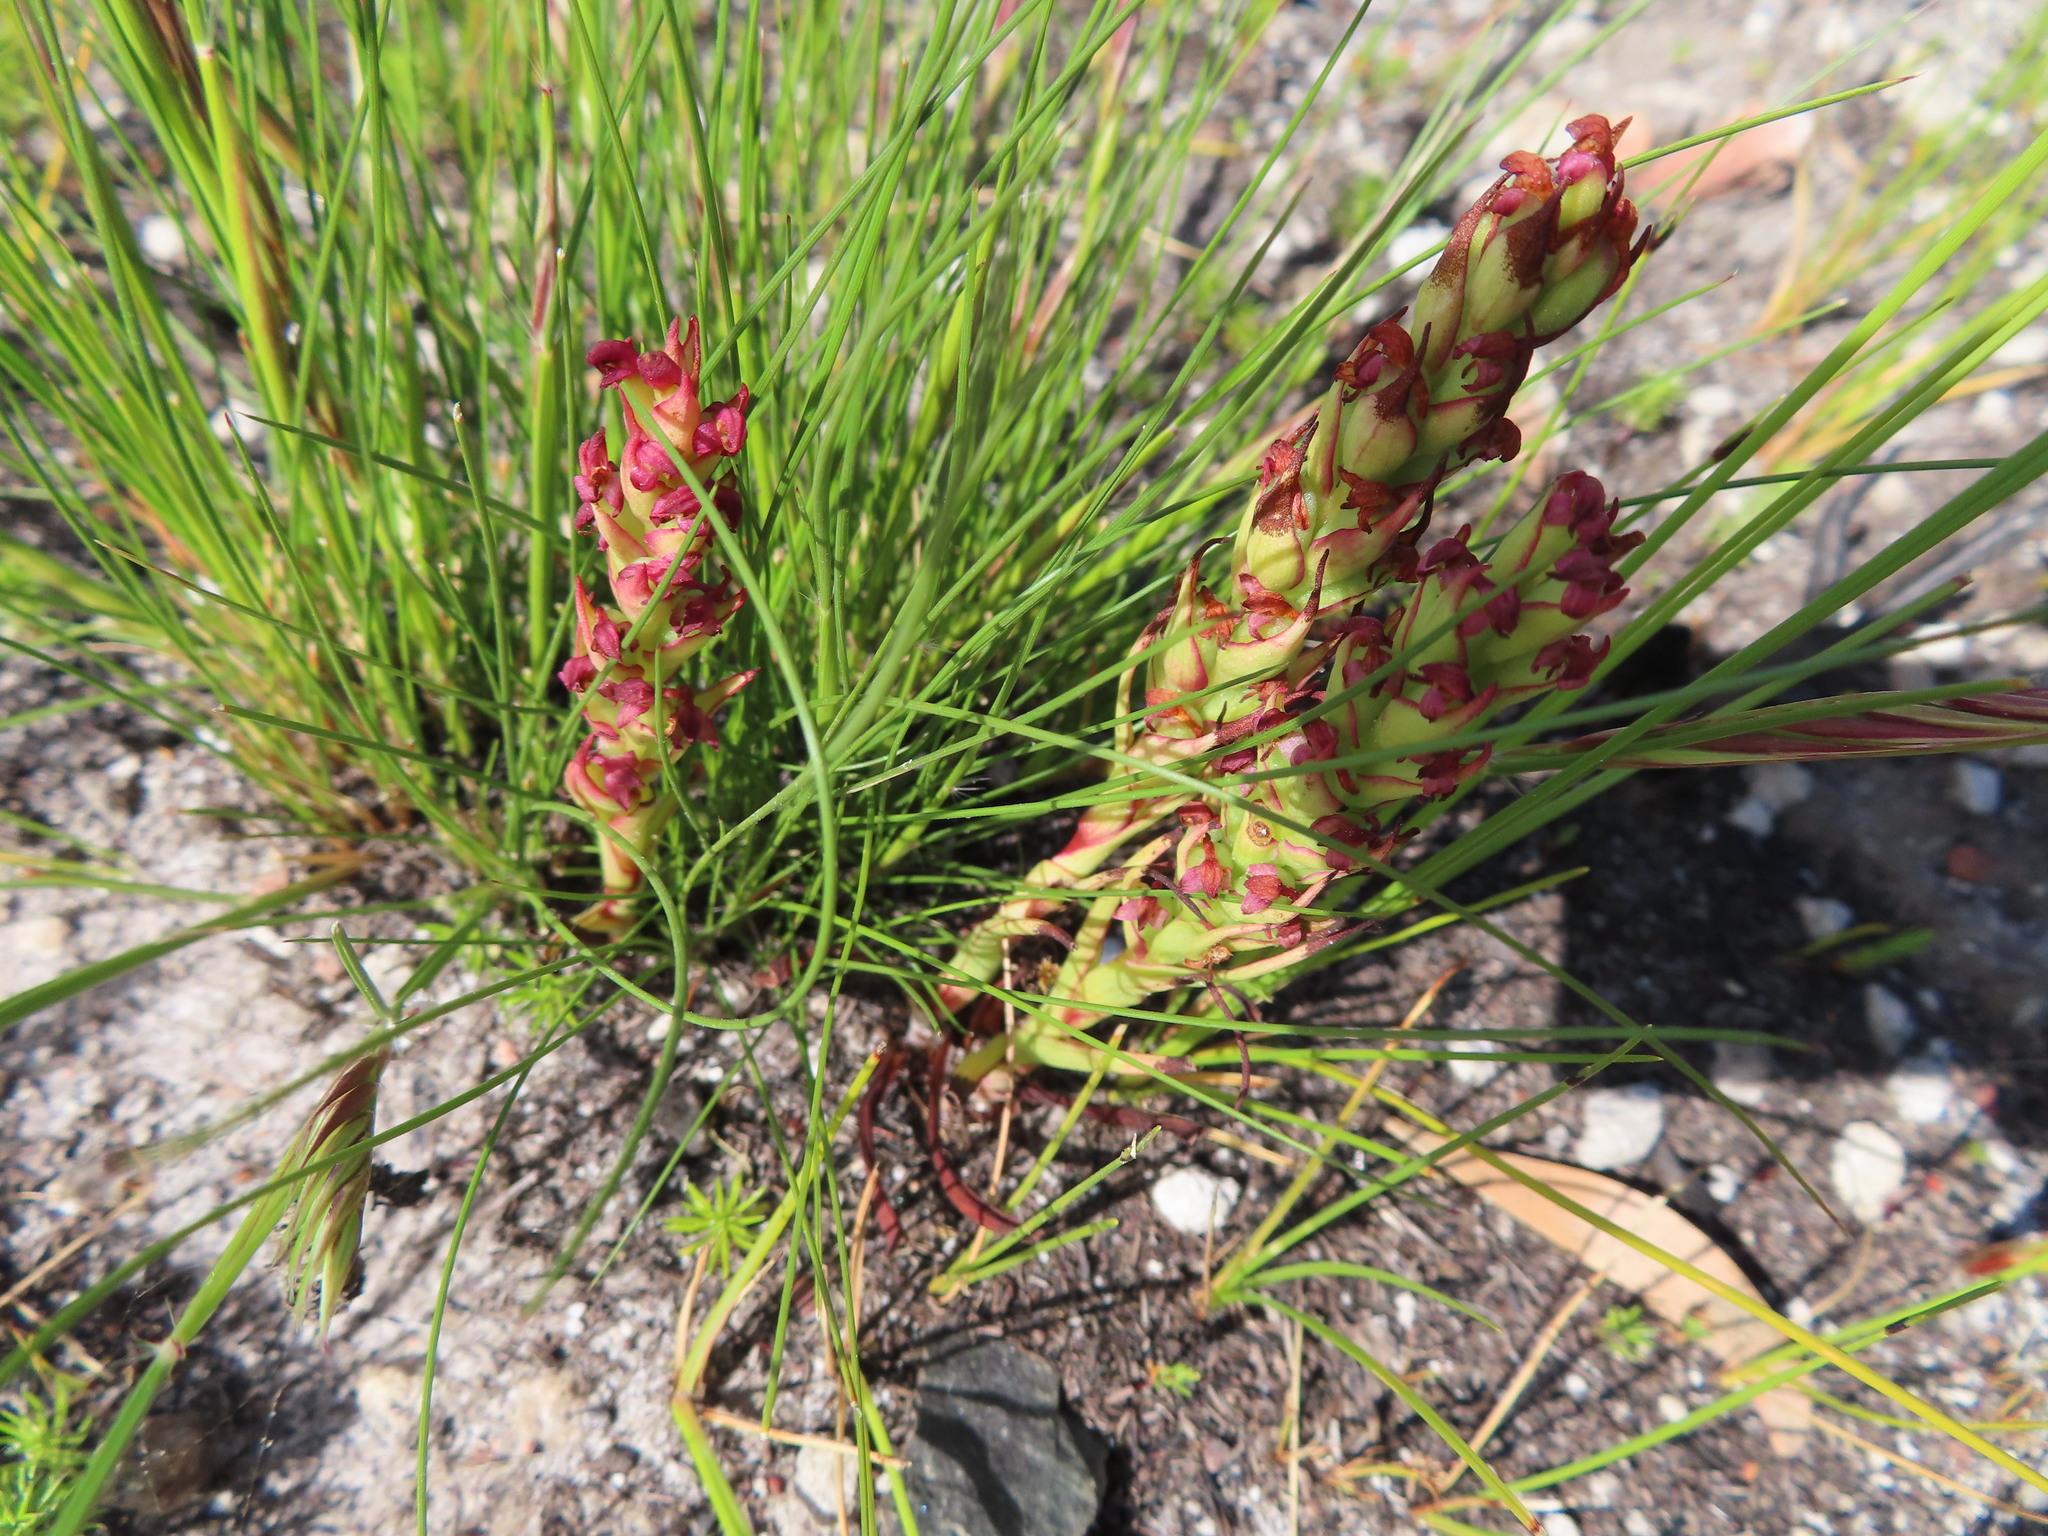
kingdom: Plantae
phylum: Tracheophyta
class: Liliopsida
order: Asparagales
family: Orchidaceae
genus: Disa
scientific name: Disa bracteata
